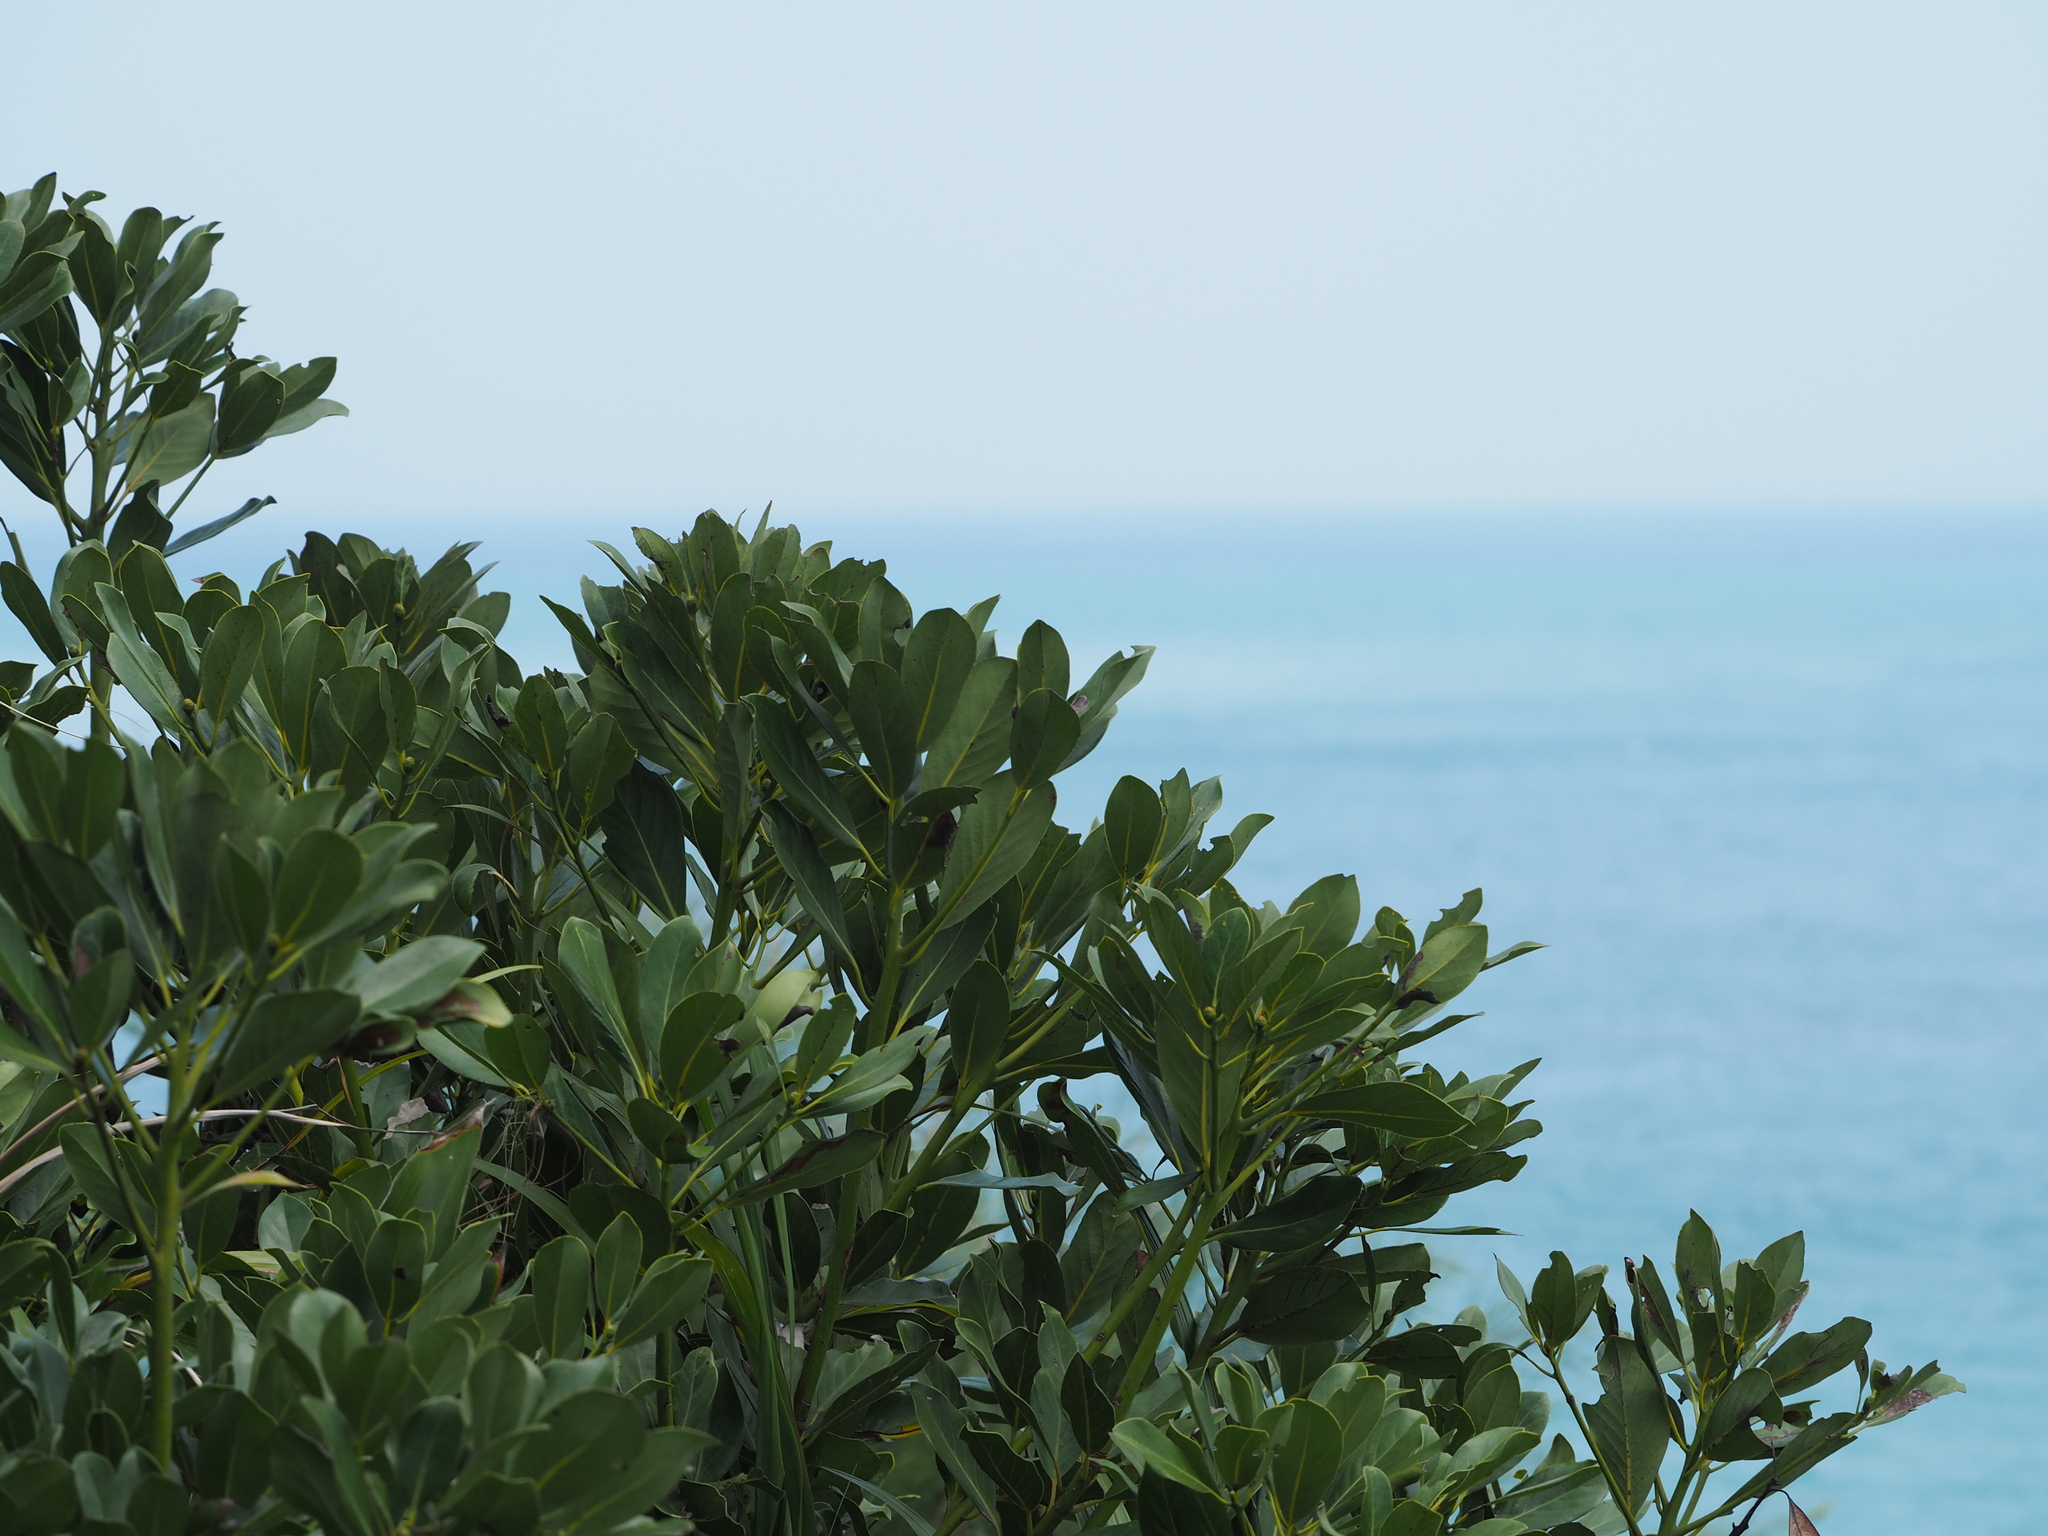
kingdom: Plantae
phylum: Tracheophyta
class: Magnoliopsida
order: Laurales
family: Lauraceae
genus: Machilus
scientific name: Machilus zuihoensis
